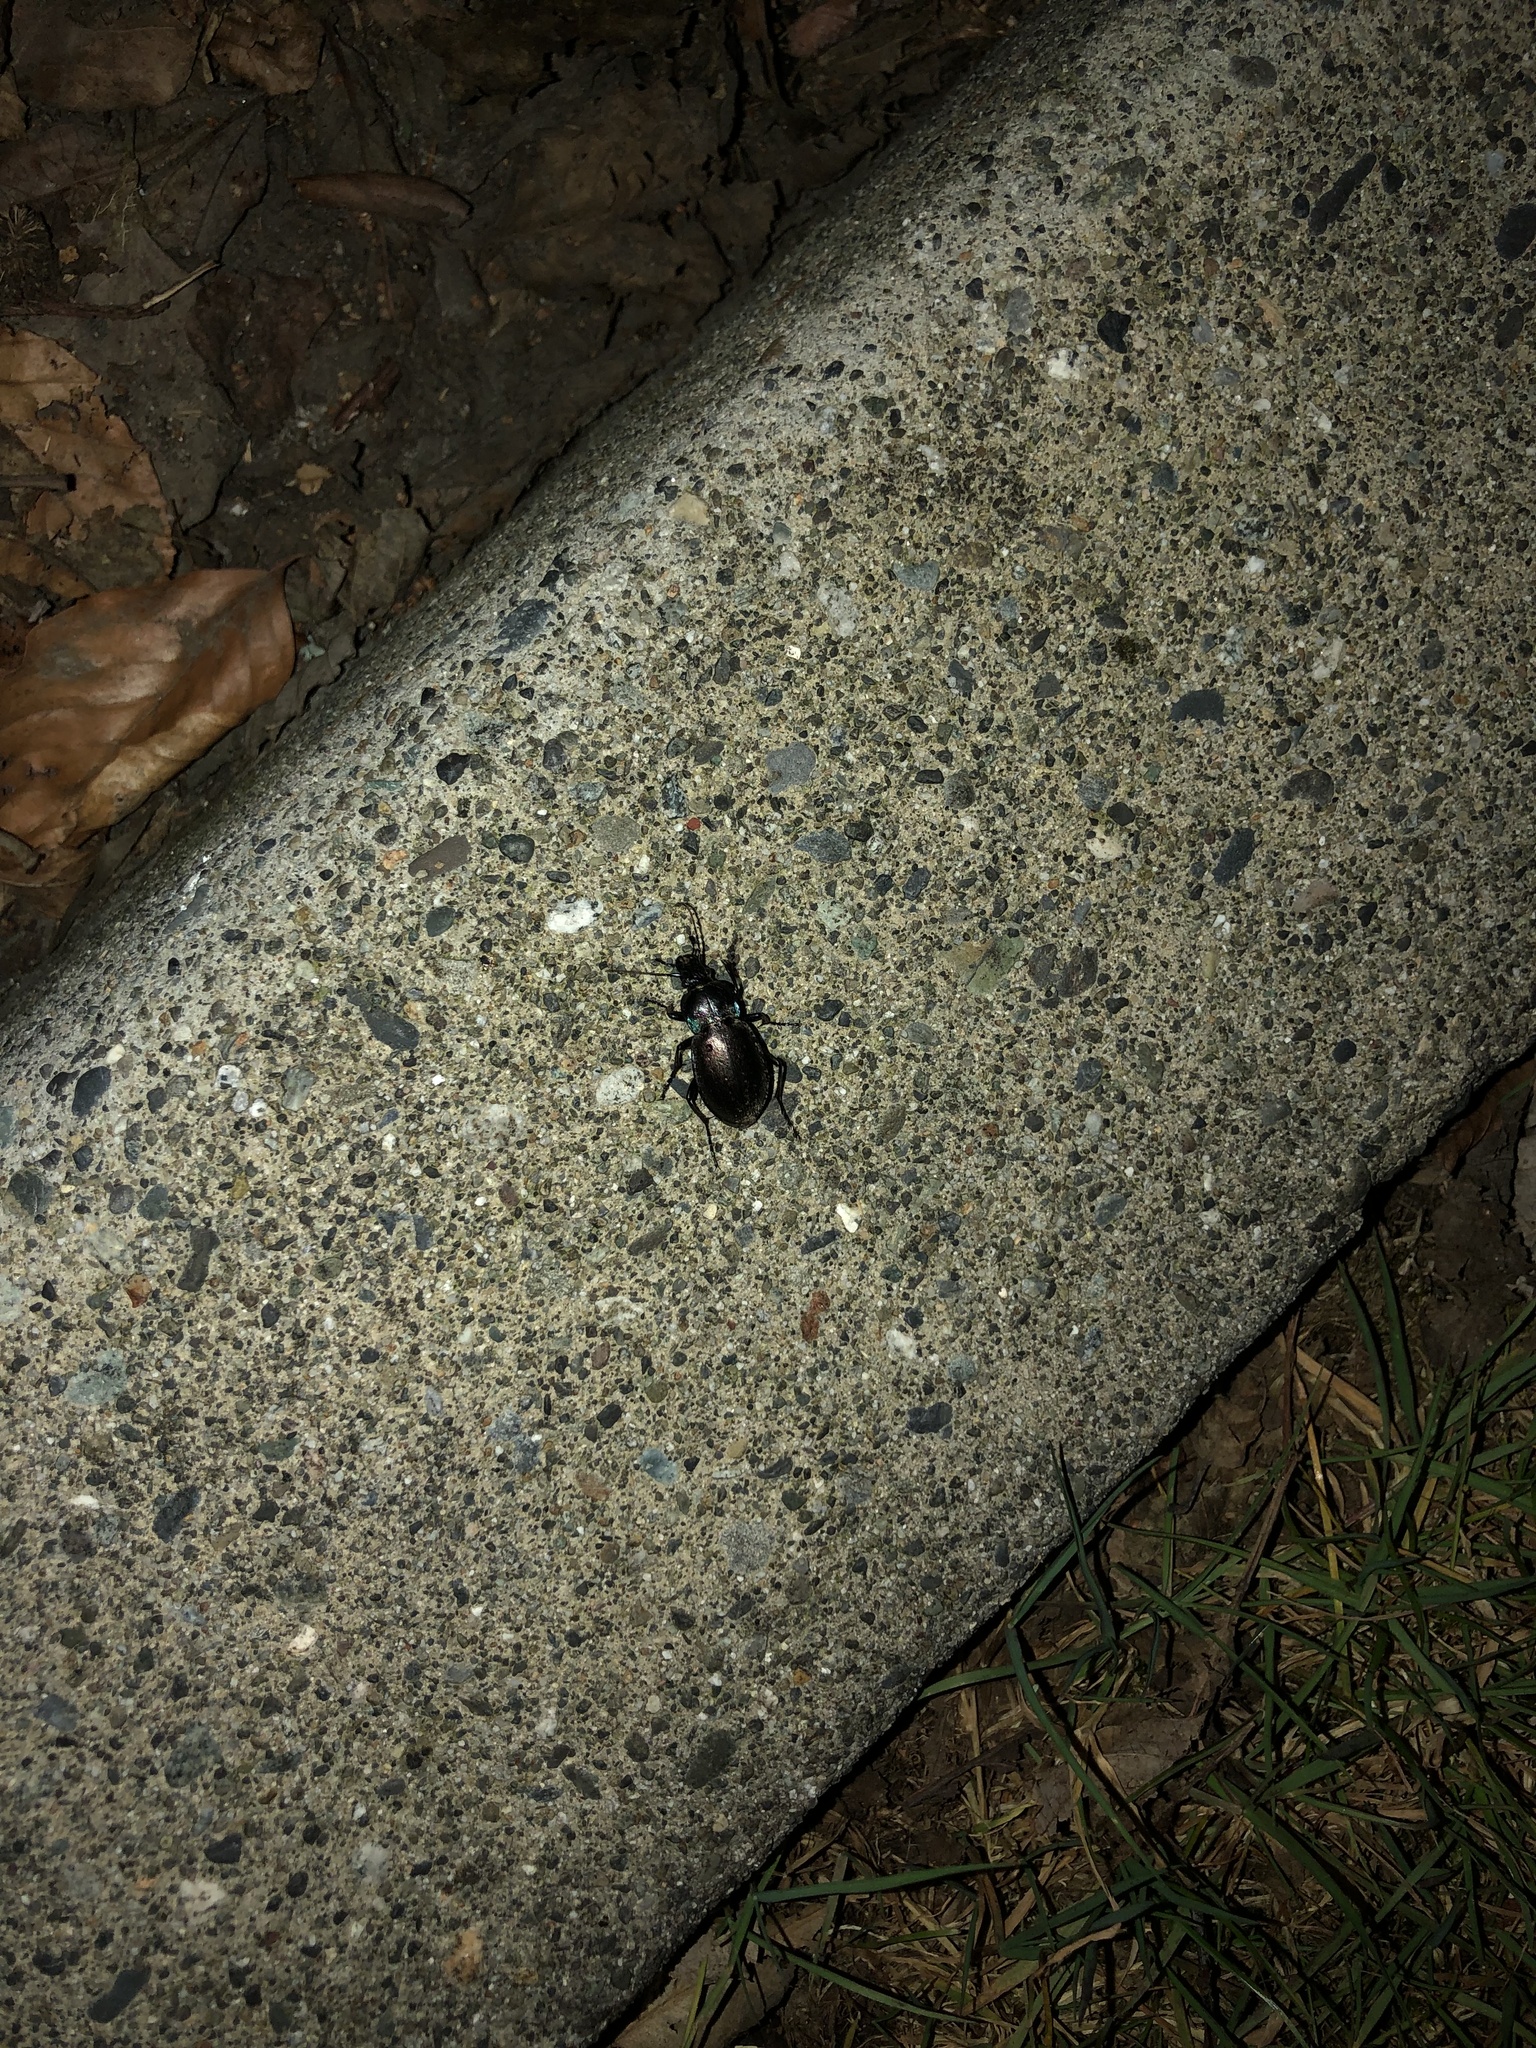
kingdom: Animalia
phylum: Arthropoda
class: Insecta
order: Coleoptera
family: Carabidae
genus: Carabus
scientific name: Carabus nemoralis
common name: European ground beetle
